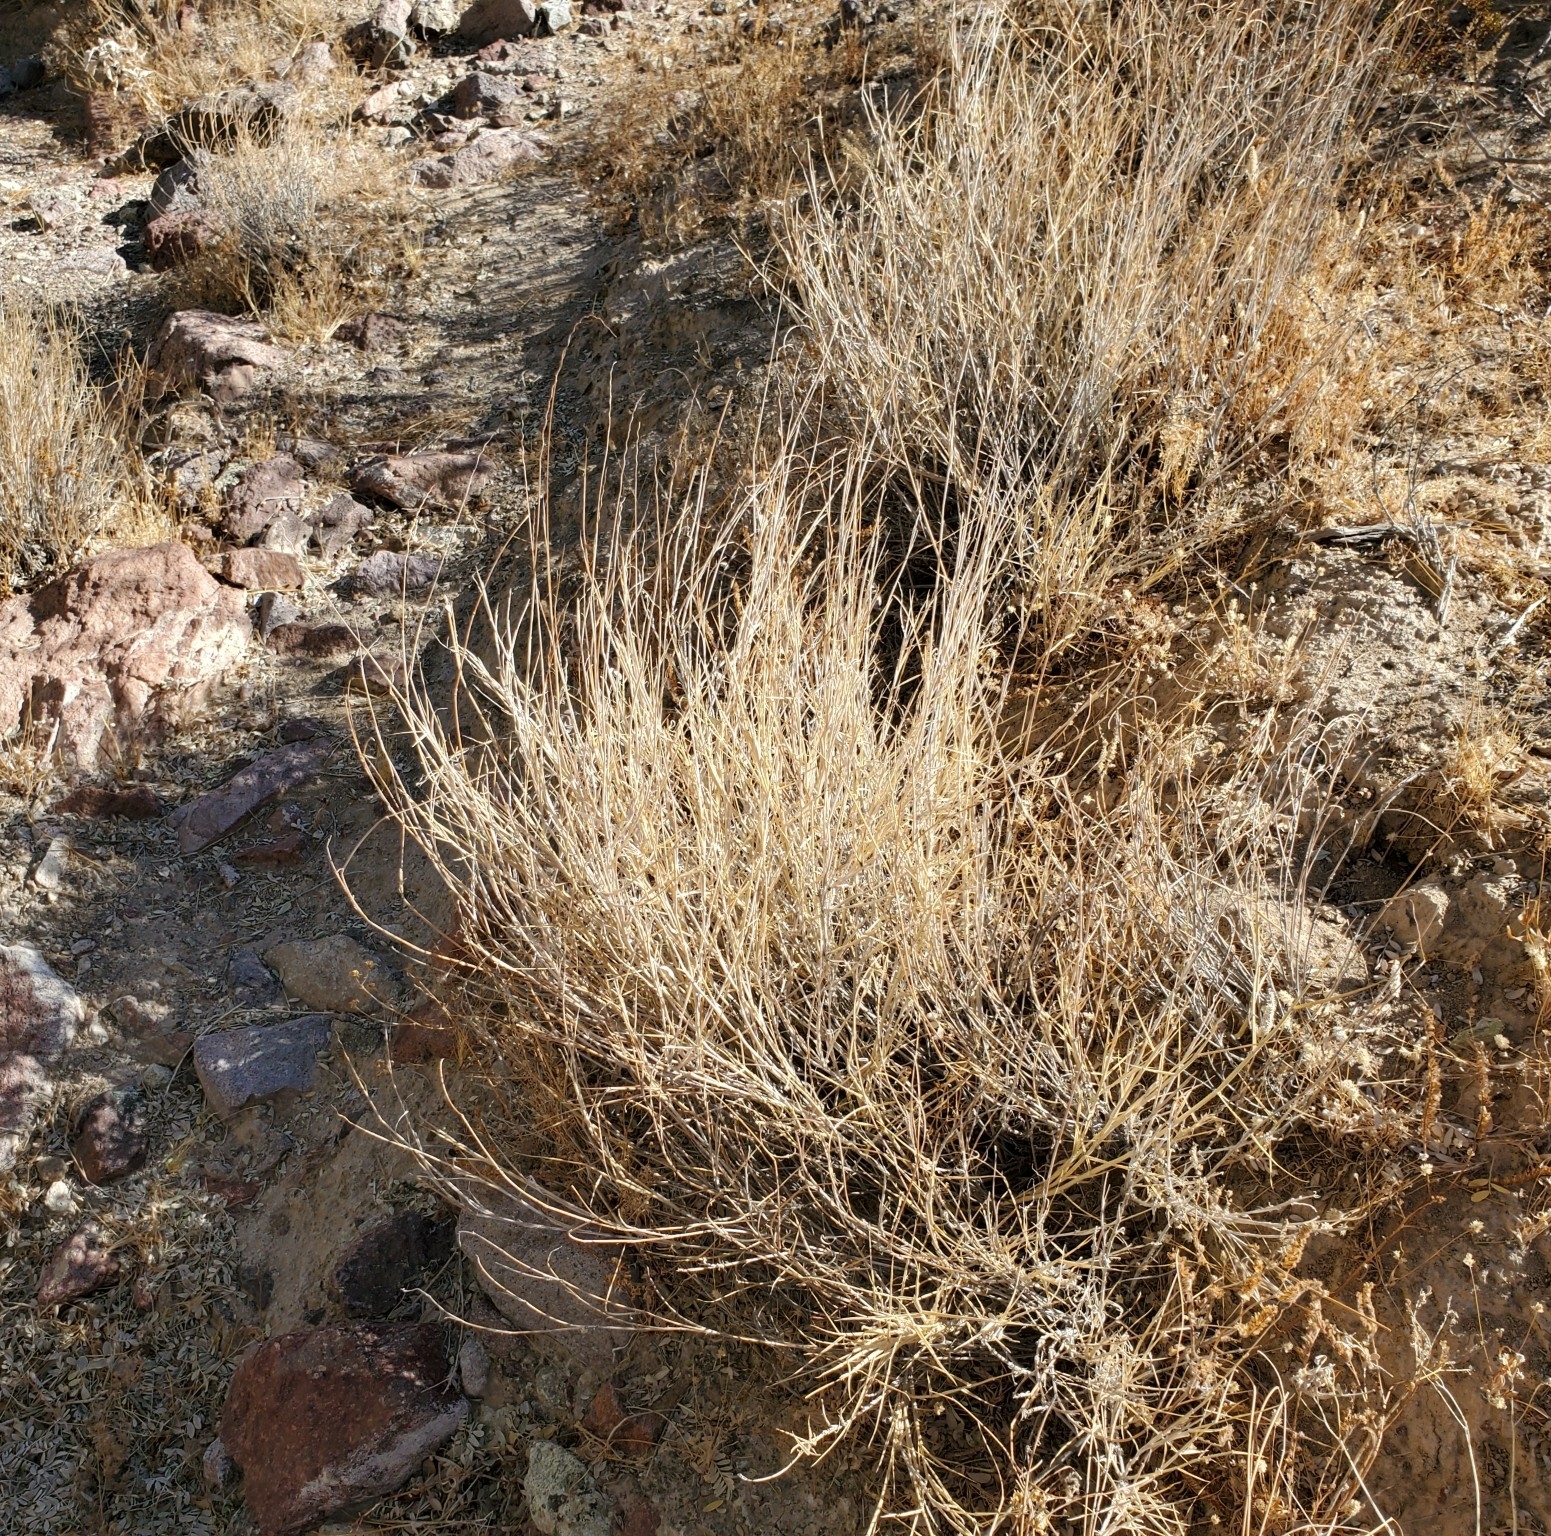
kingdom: Plantae
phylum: Tracheophyta
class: Liliopsida
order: Poales
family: Poaceae
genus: Hilaria
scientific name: Hilaria rigida
